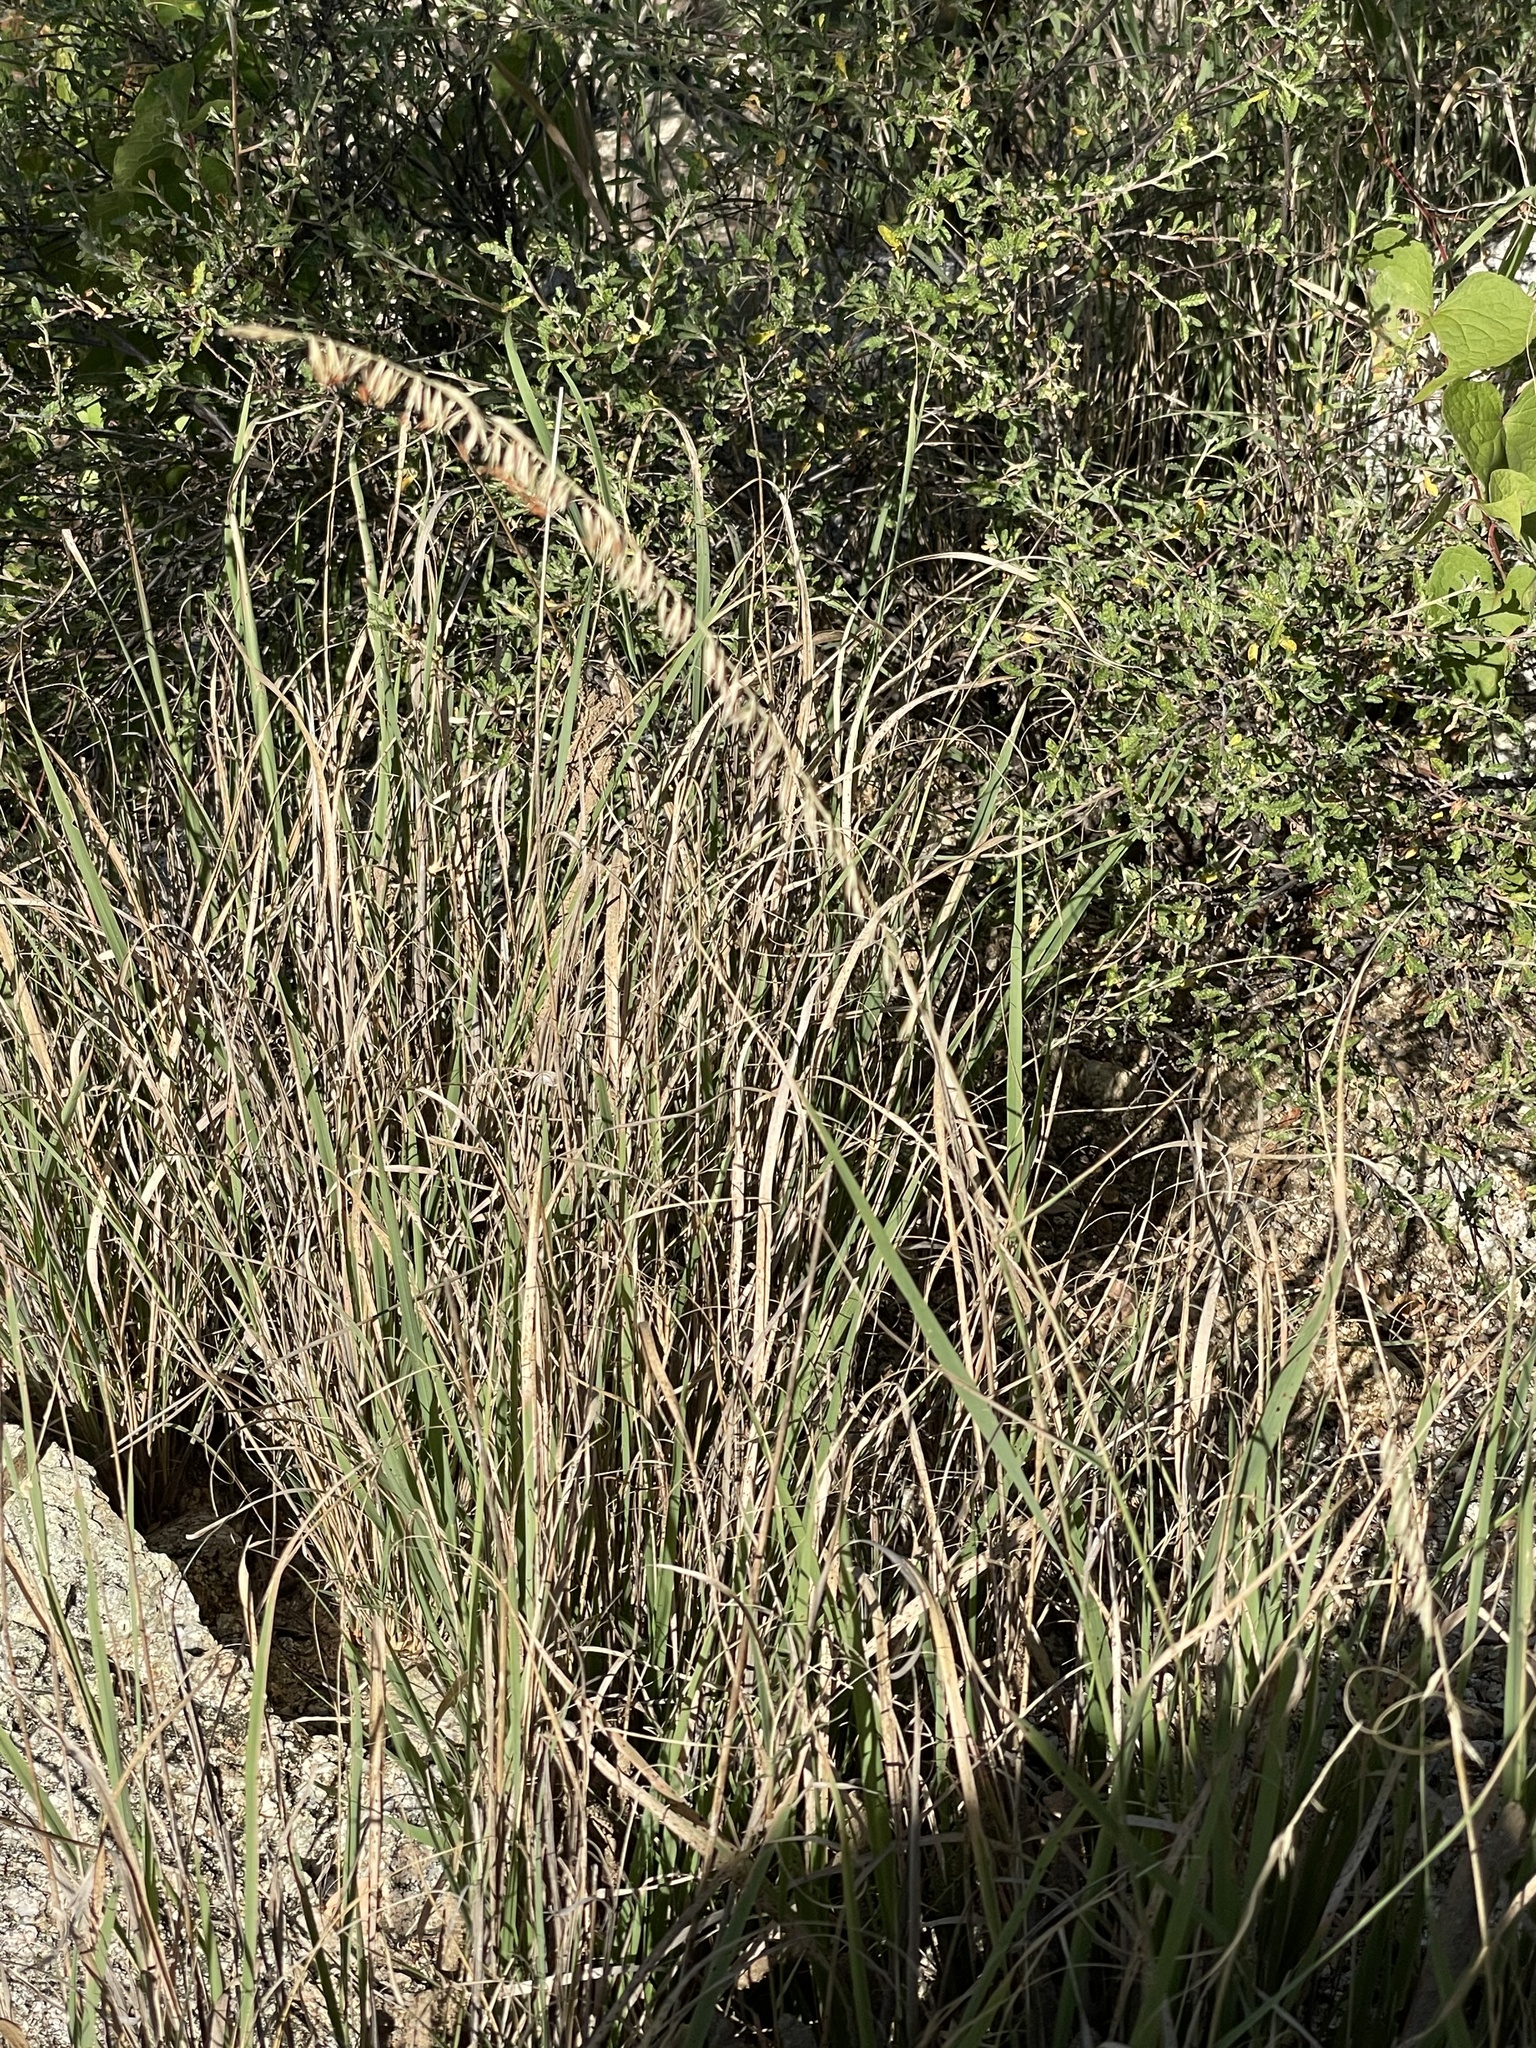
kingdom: Plantae
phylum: Tracheophyta
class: Liliopsida
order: Poales
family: Poaceae
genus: Bouteloua
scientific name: Bouteloua reflexa
